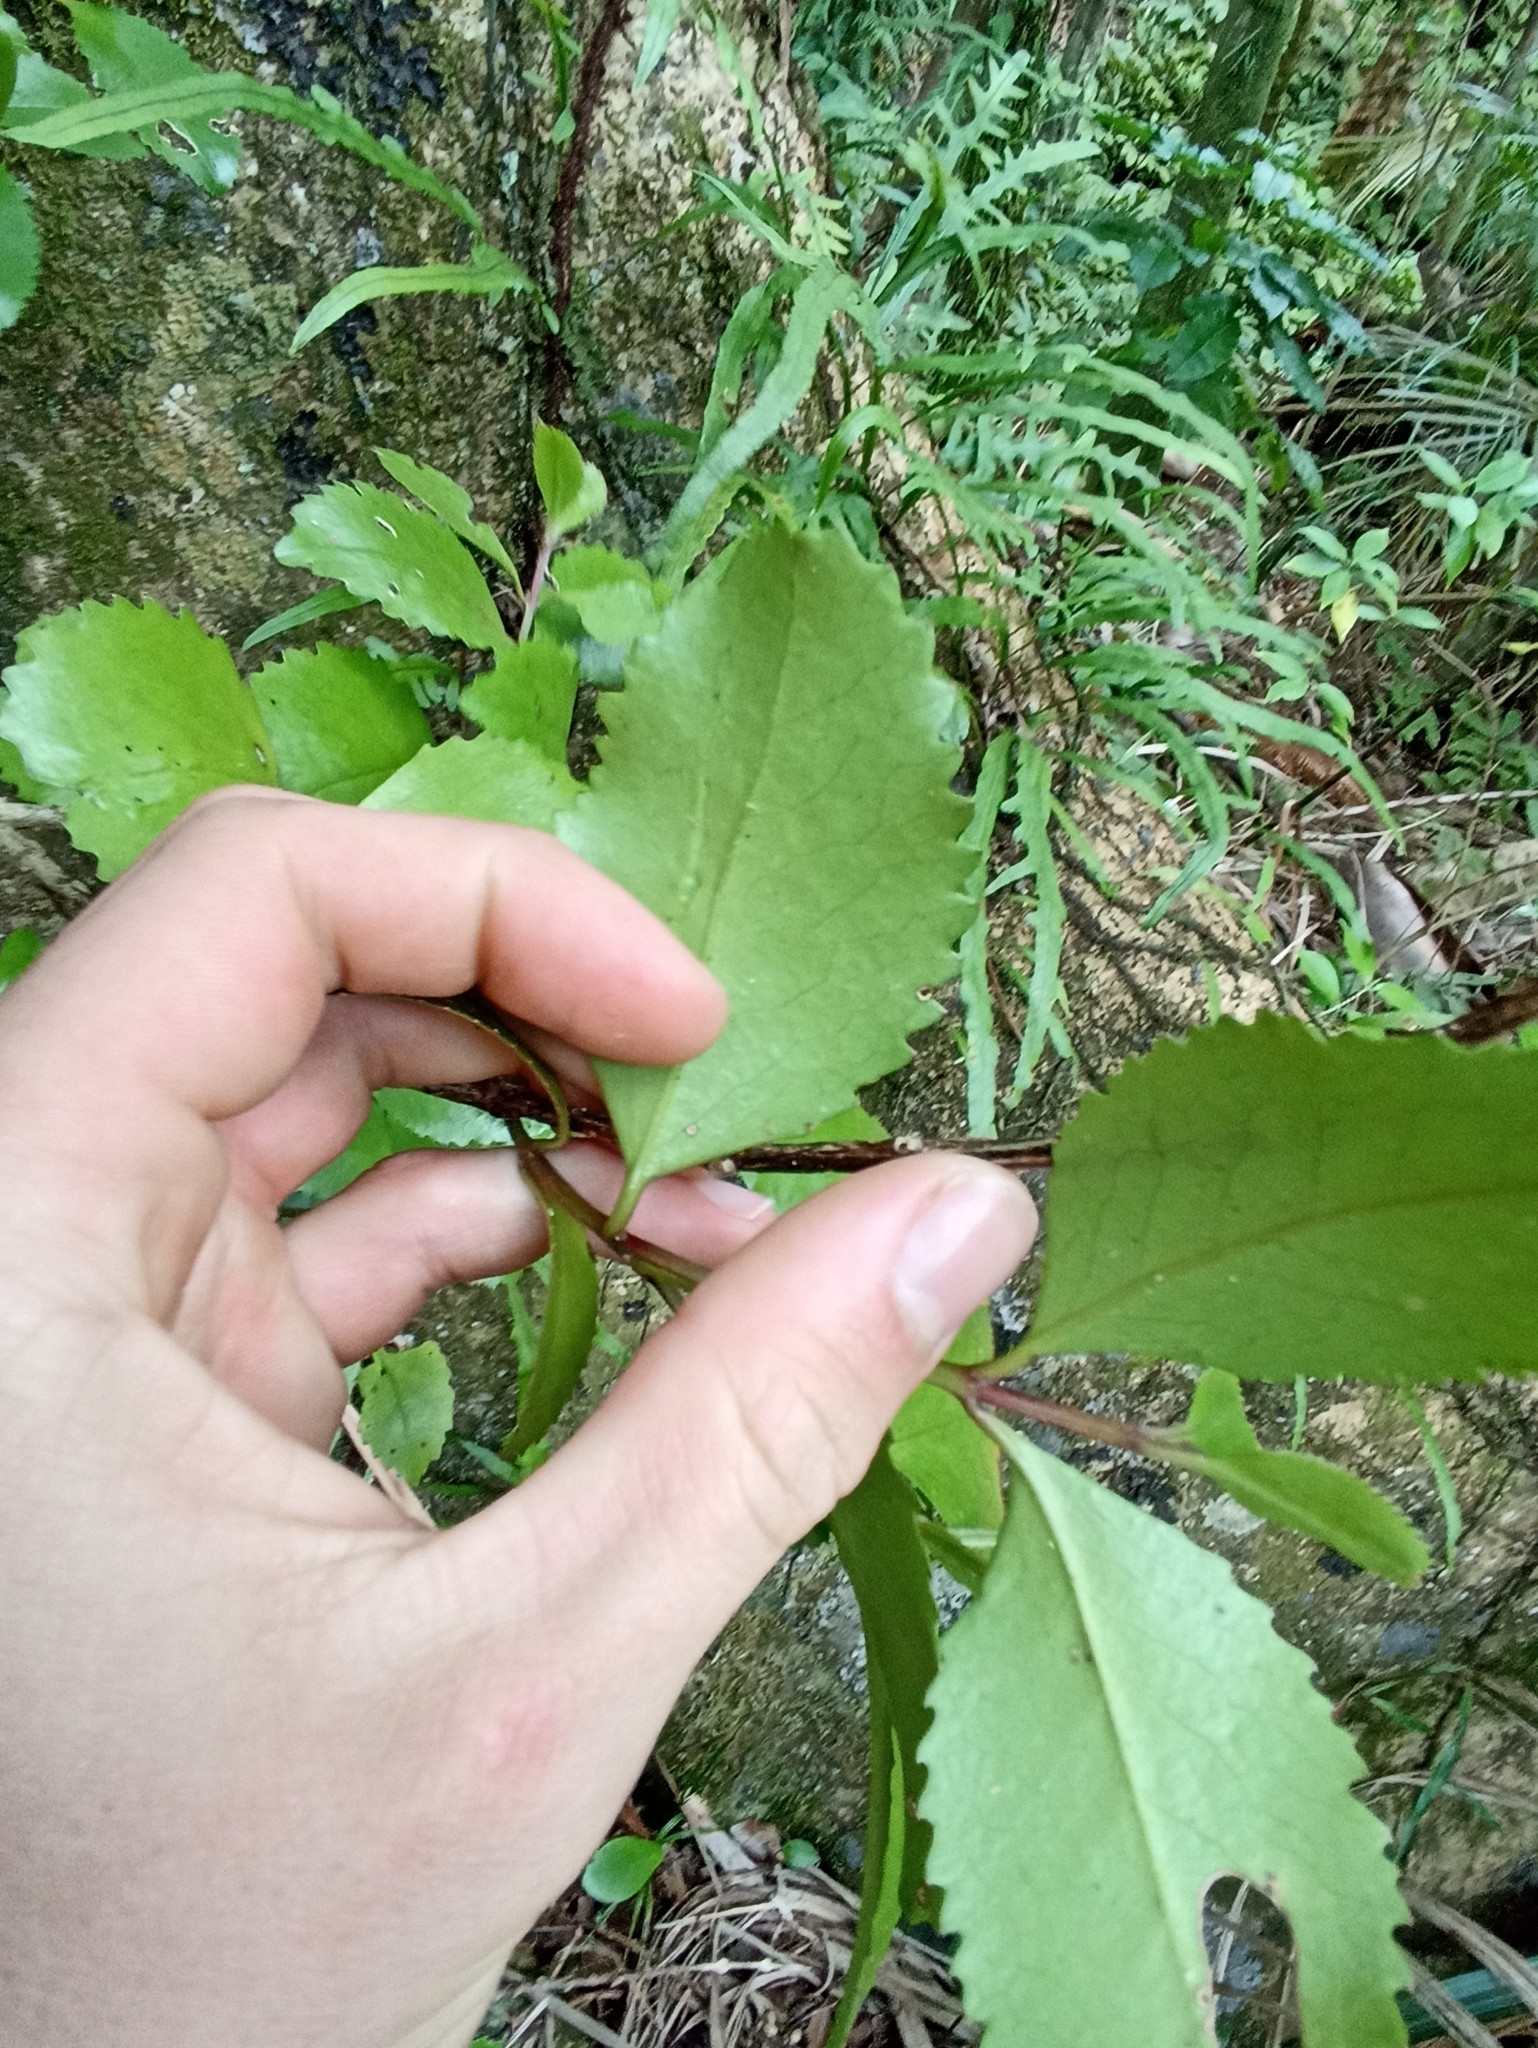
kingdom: Plantae
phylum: Tracheophyta
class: Magnoliopsida
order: Laurales
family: Atherospermataceae
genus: Laurelia
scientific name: Laurelia novae-zelandiae
